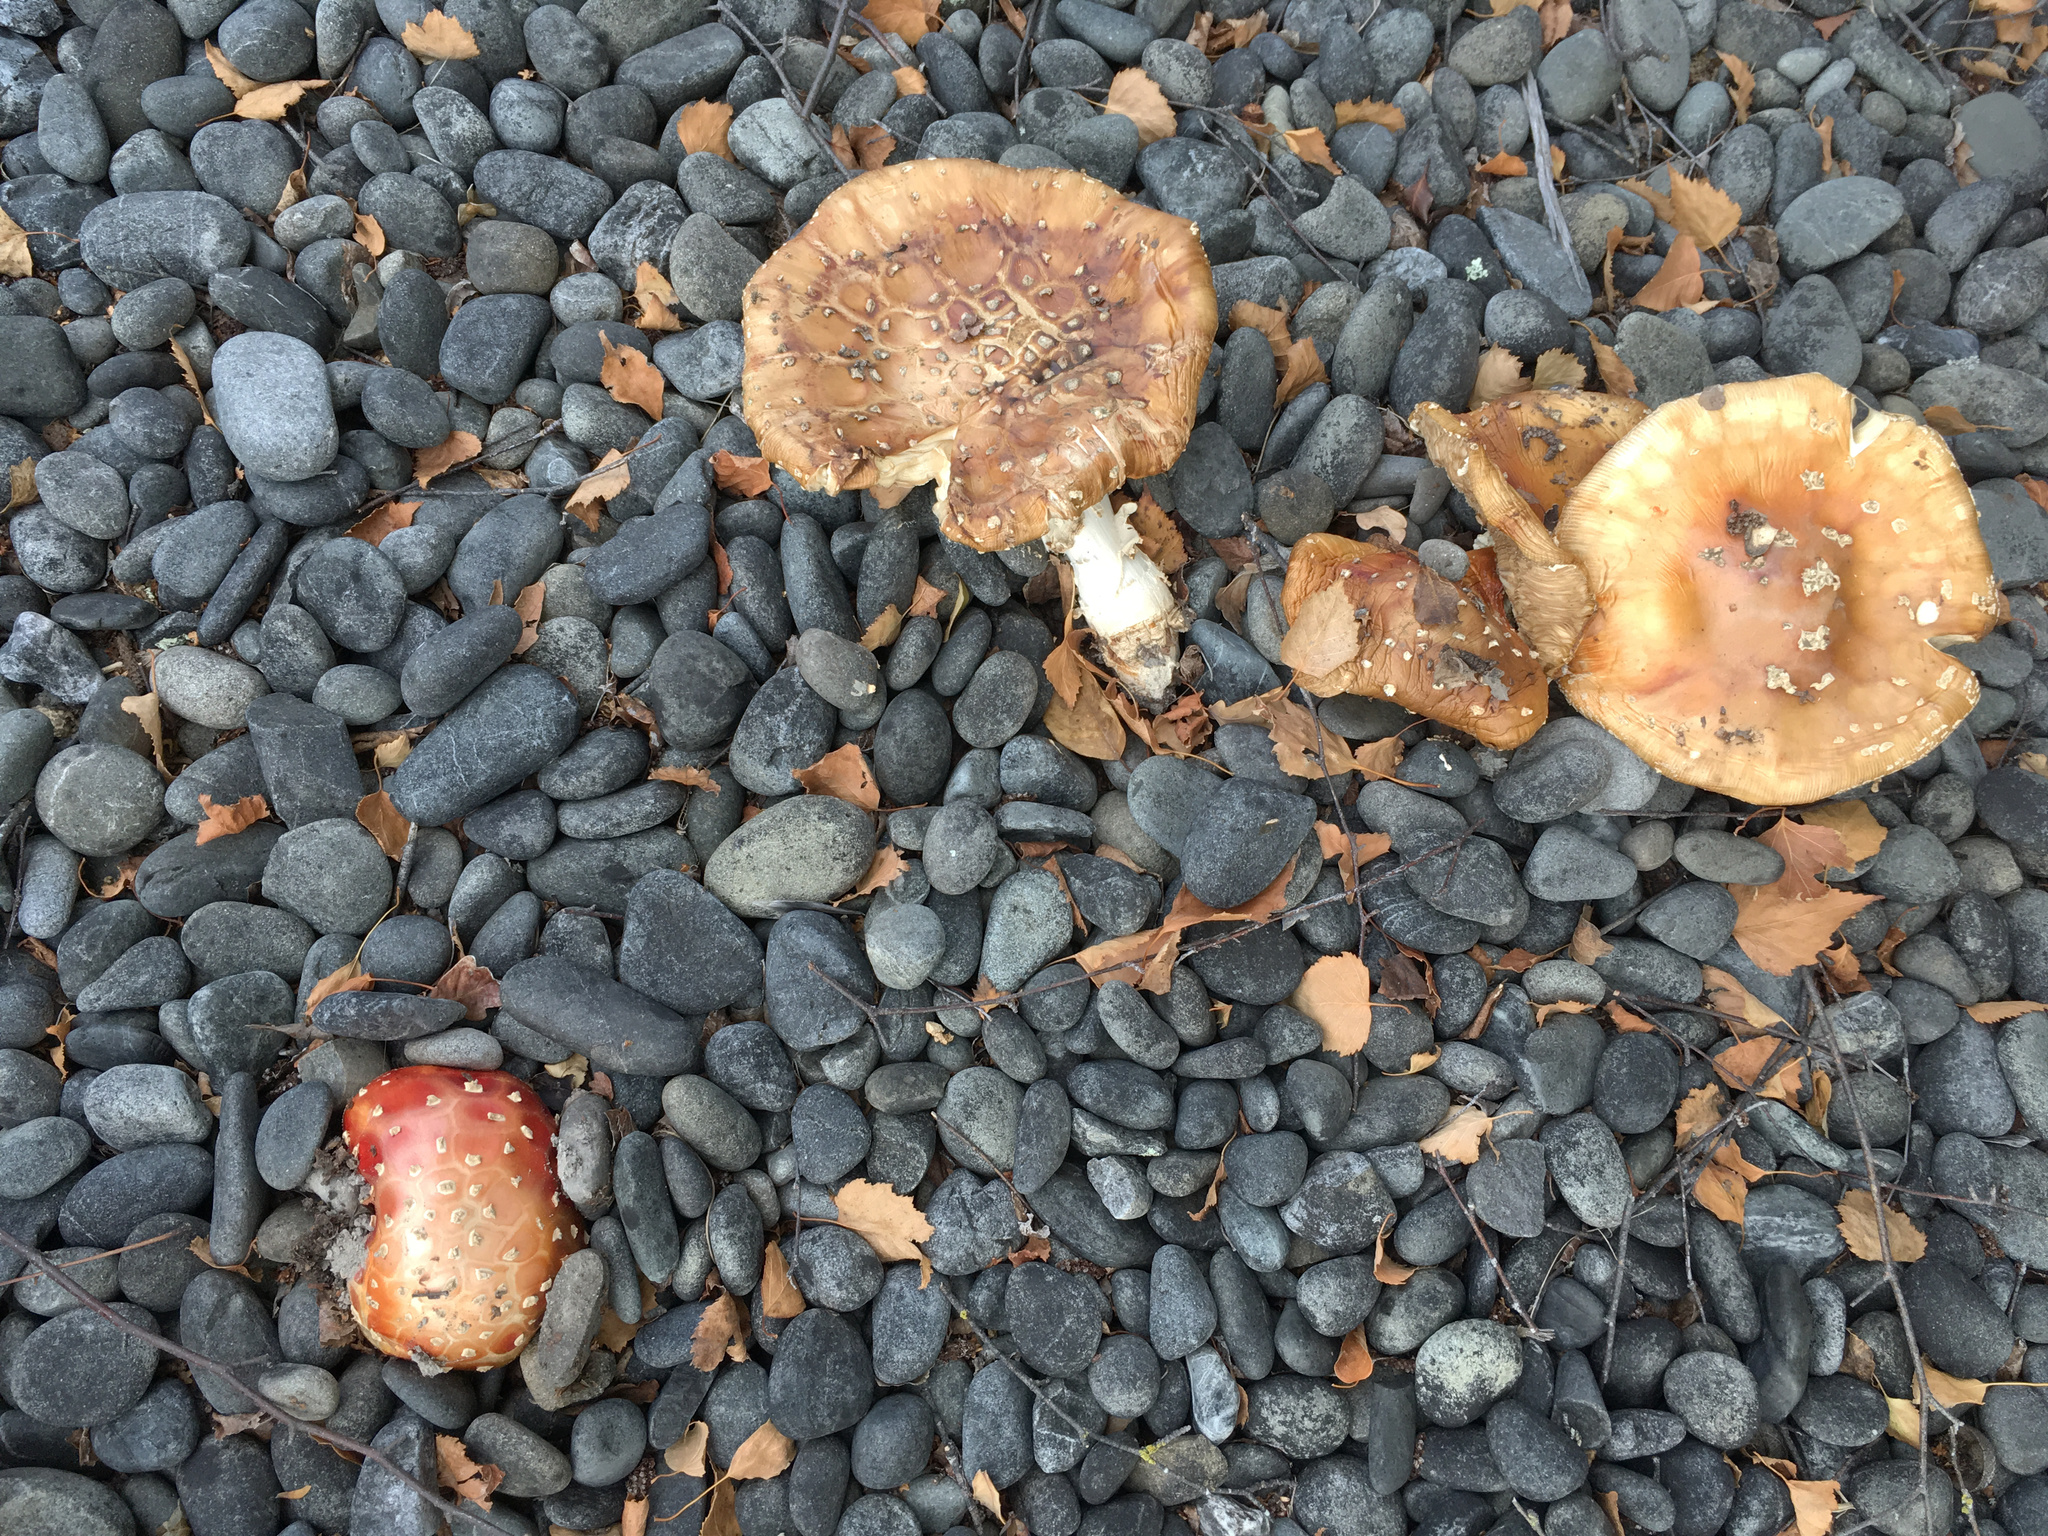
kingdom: Fungi
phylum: Basidiomycota
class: Agaricomycetes
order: Agaricales
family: Amanitaceae
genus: Amanita
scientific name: Amanita muscaria
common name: Fly agaric
